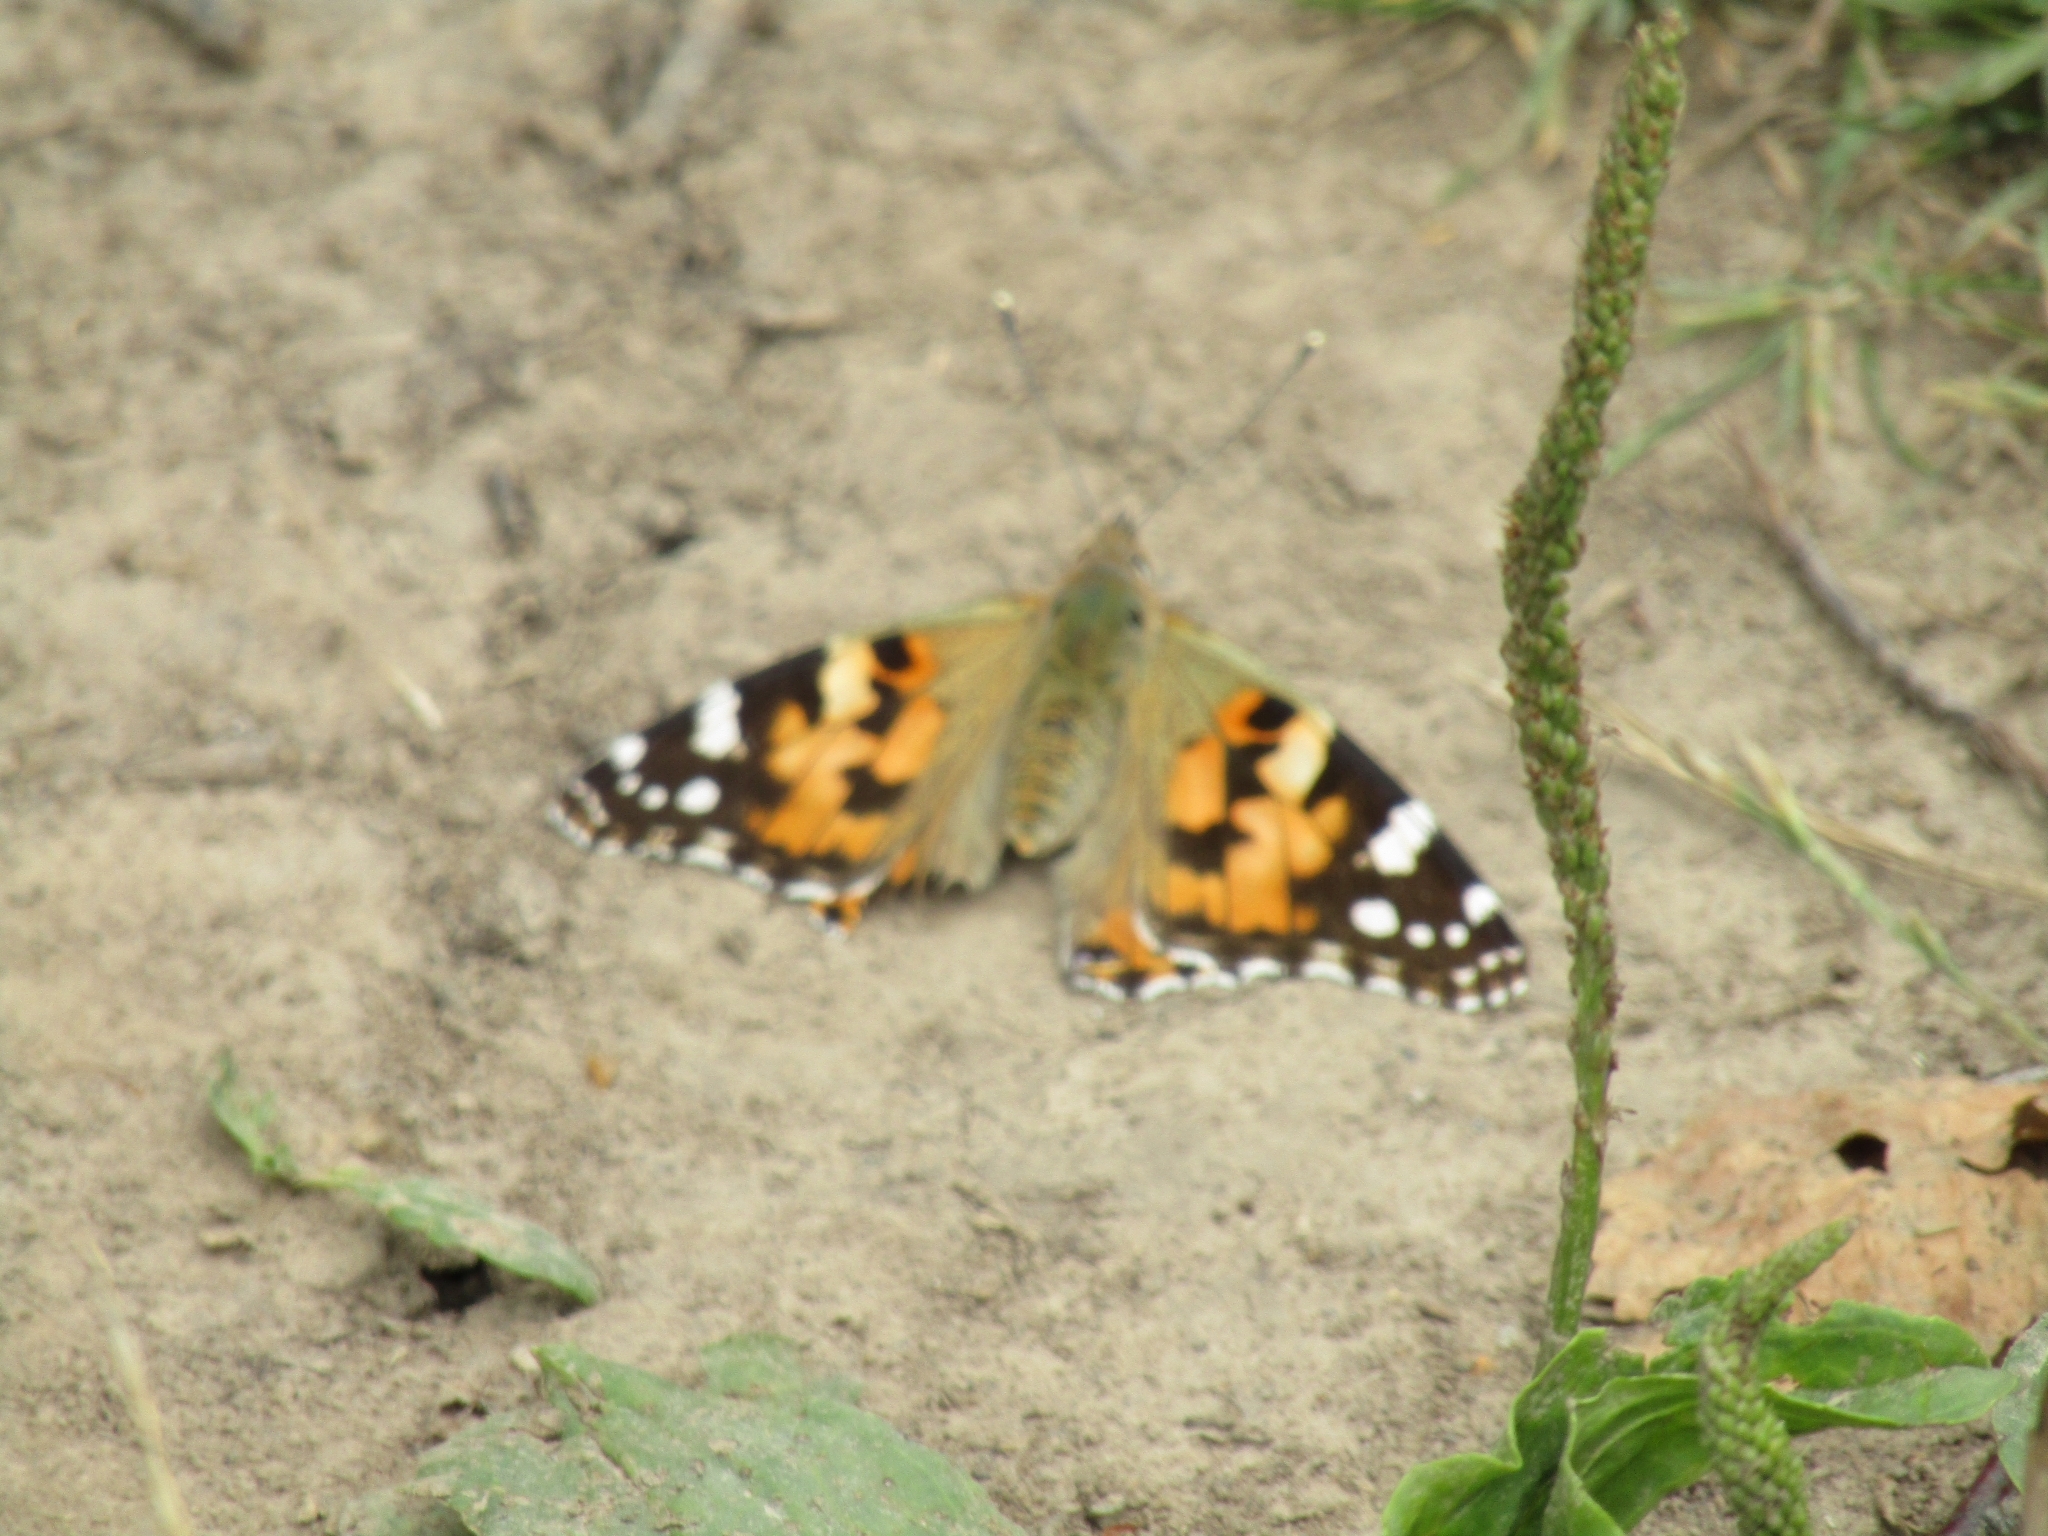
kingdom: Animalia
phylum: Arthropoda
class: Insecta
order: Lepidoptera
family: Nymphalidae
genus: Vanessa
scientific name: Vanessa cardui
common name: Painted lady
